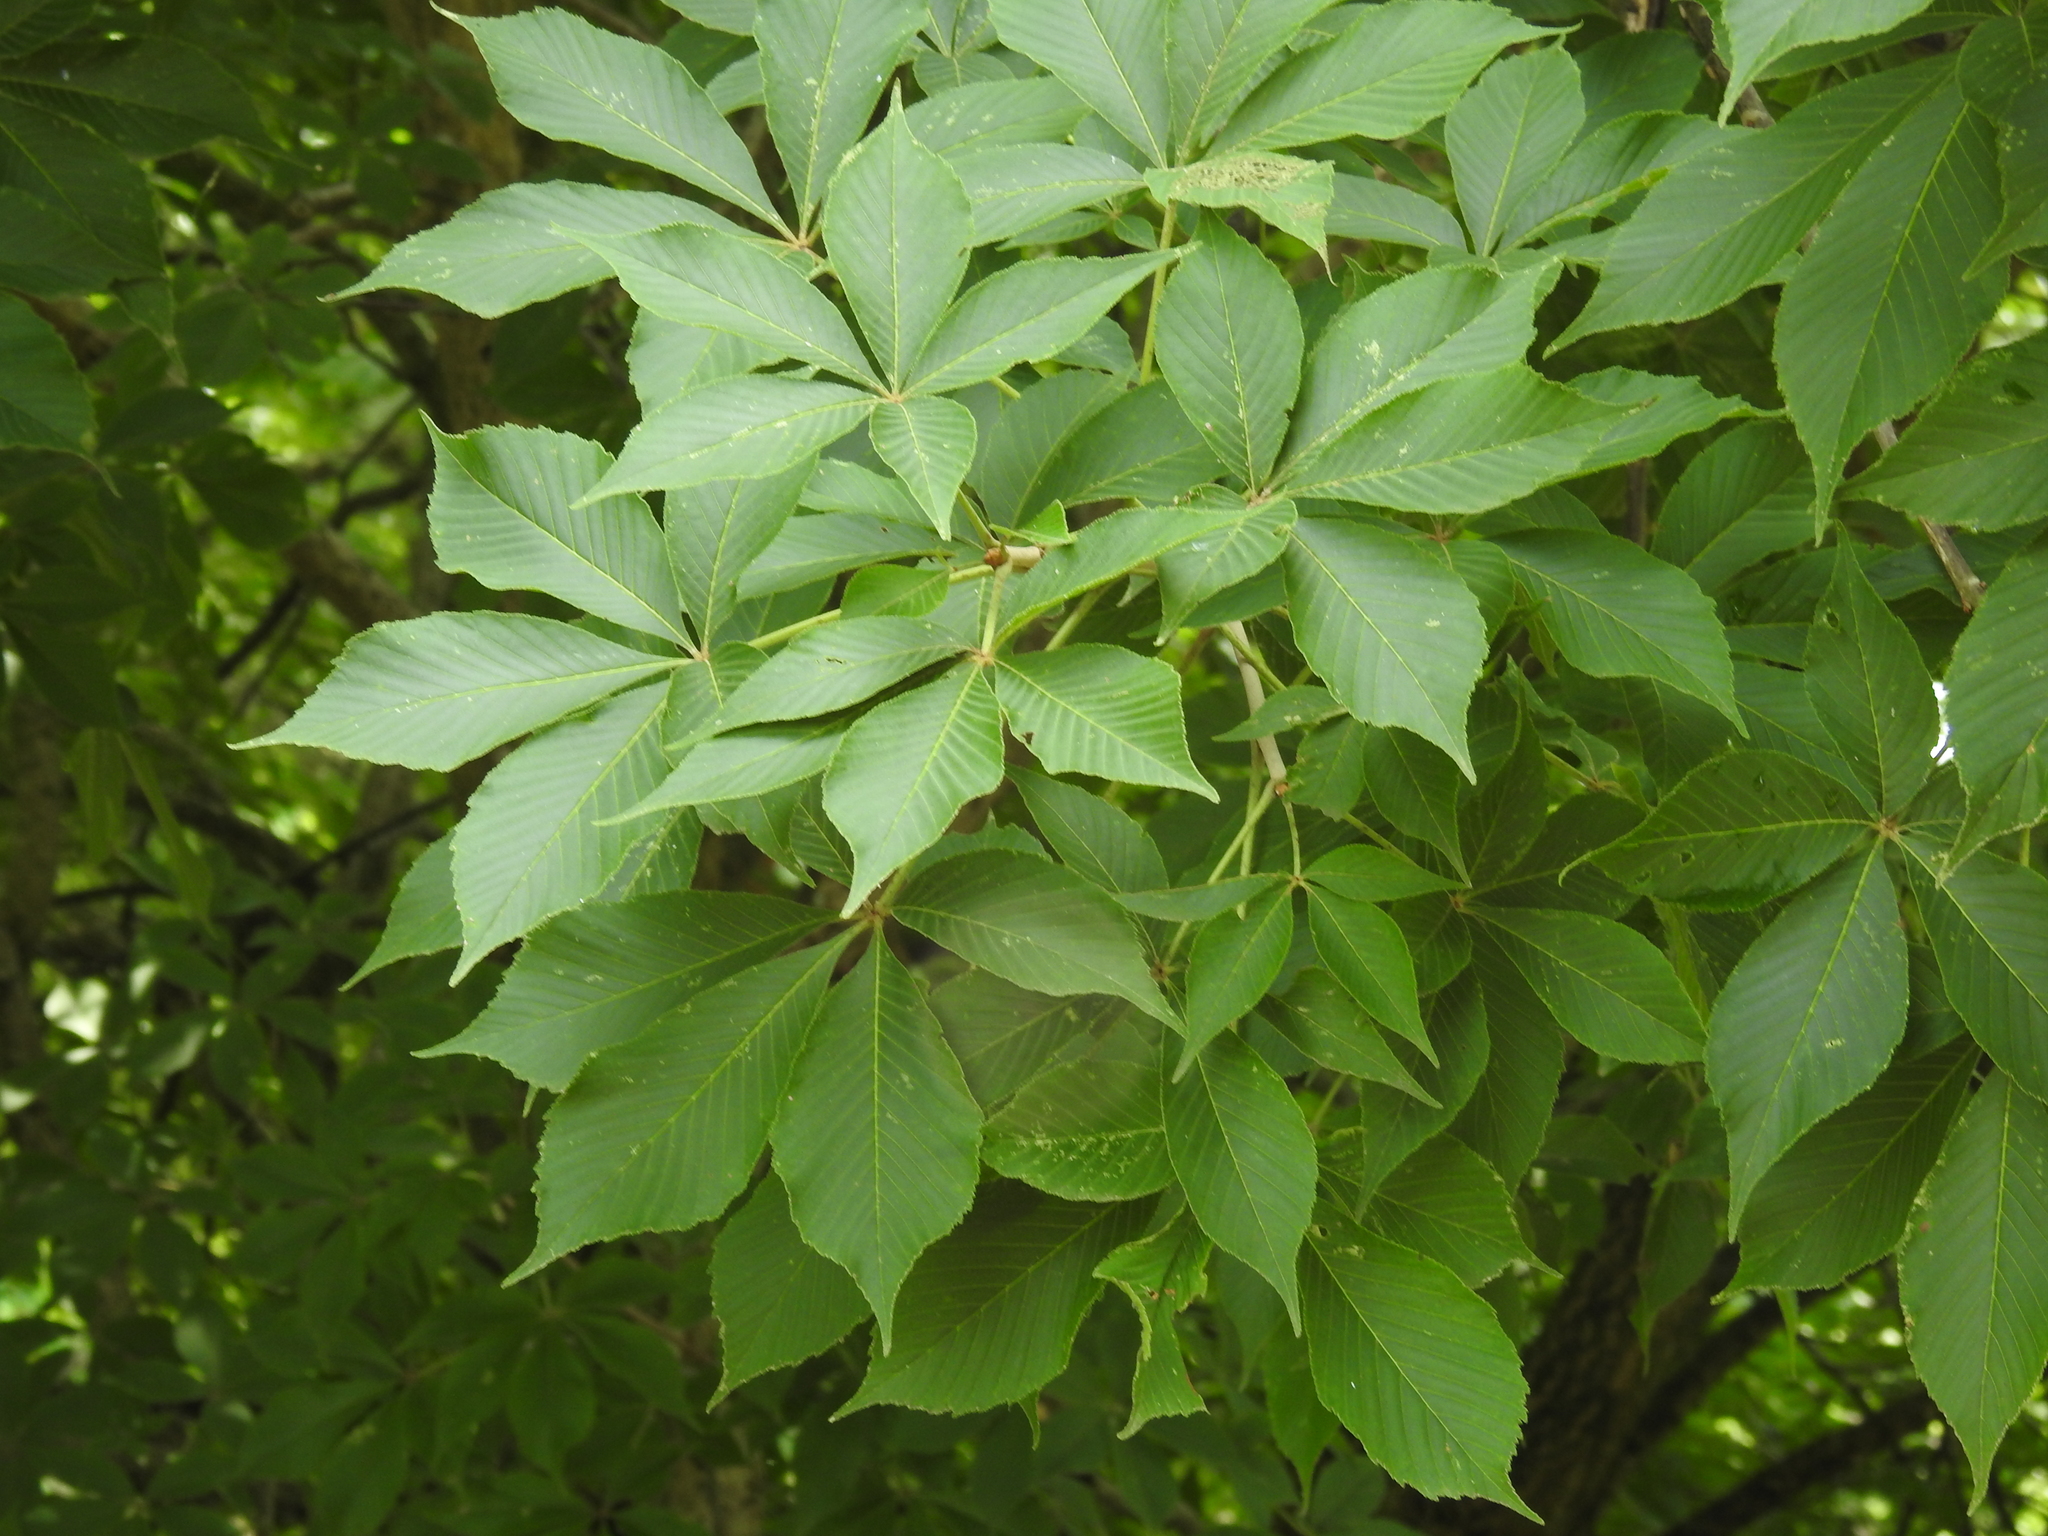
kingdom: Plantae
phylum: Tracheophyta
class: Magnoliopsida
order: Sapindales
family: Sapindaceae
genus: Aesculus
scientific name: Aesculus glabra
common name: Ohio buckeye
